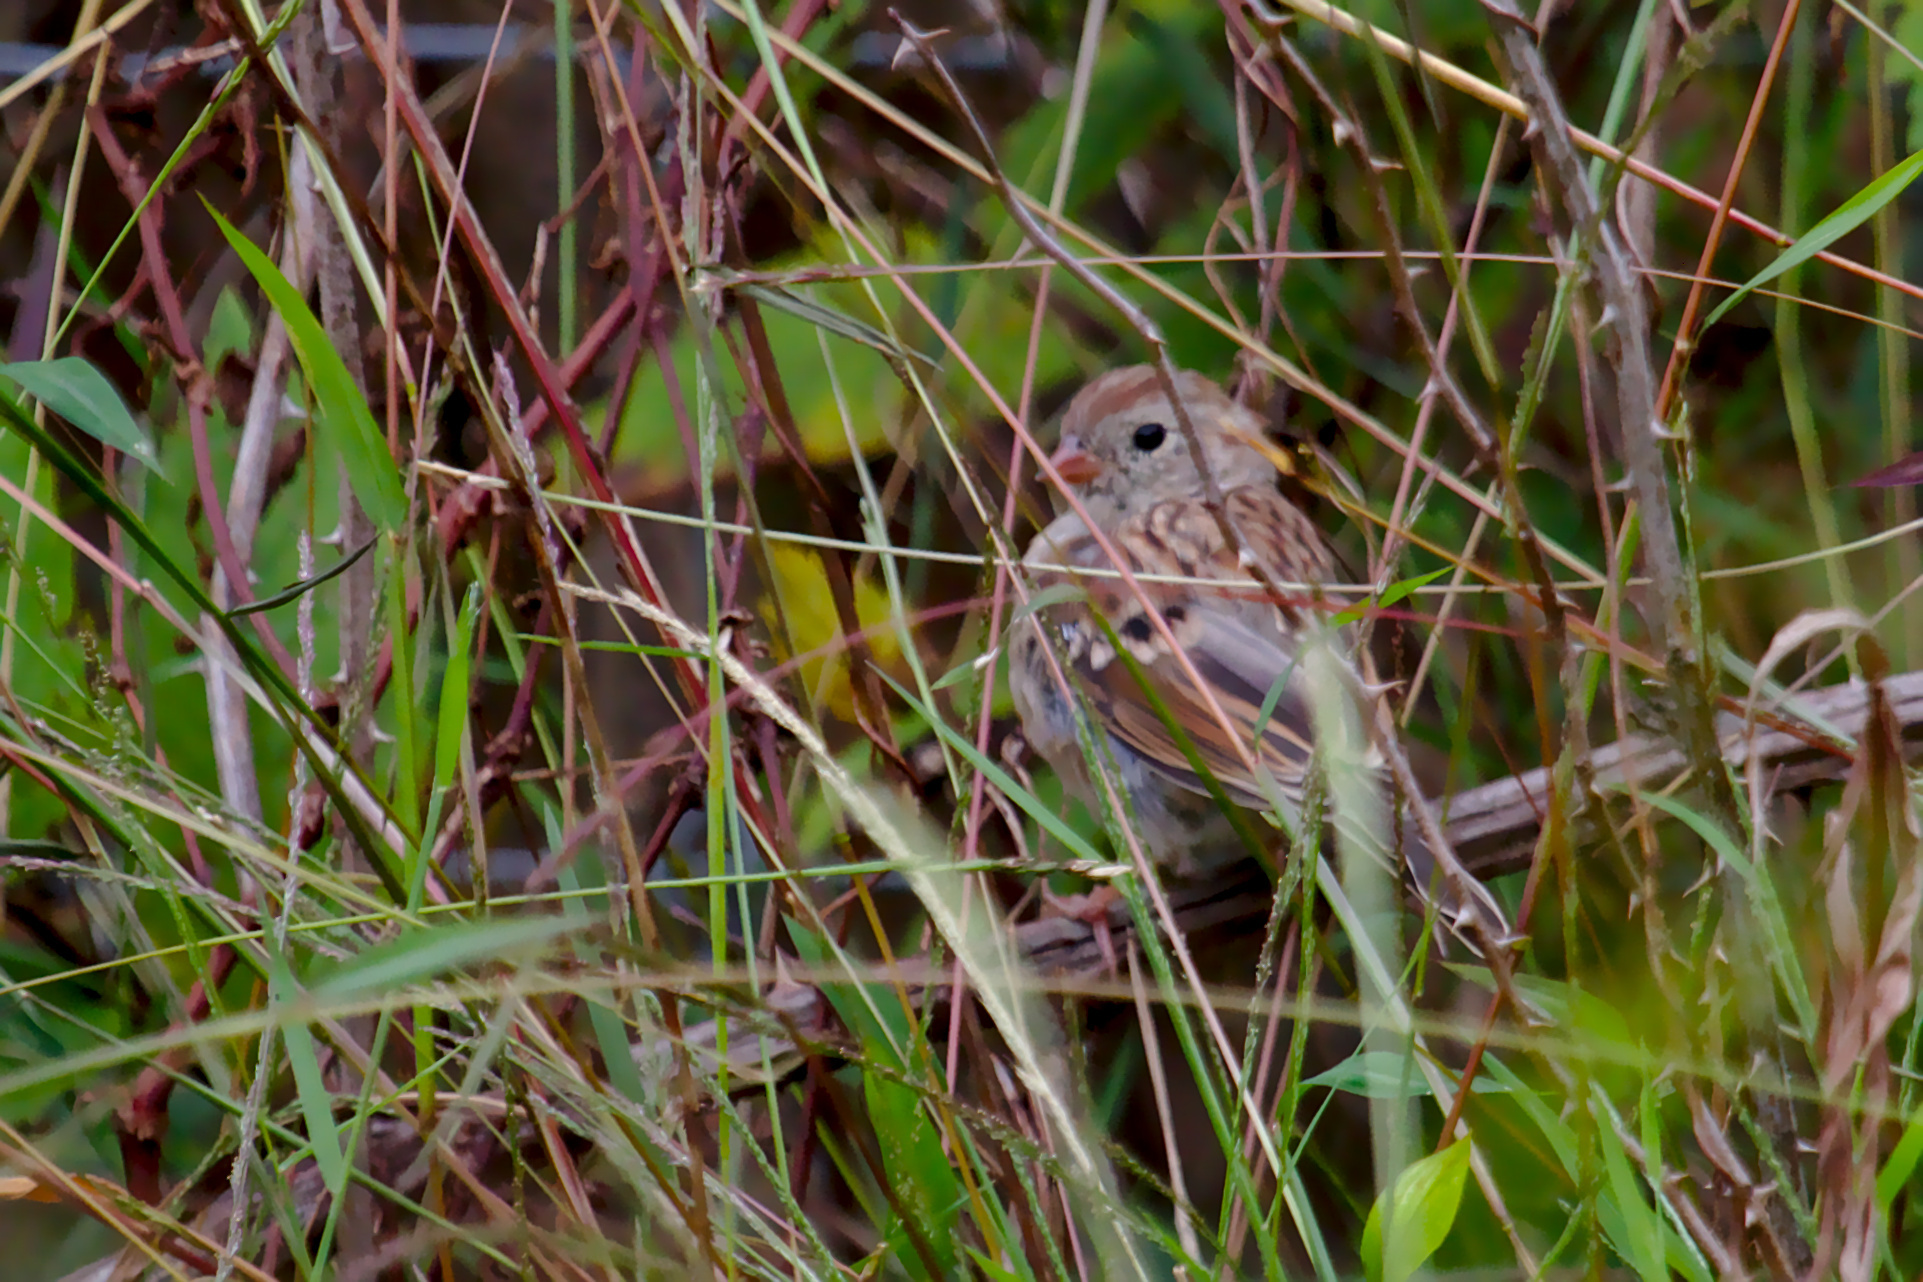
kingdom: Animalia
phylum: Chordata
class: Aves
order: Passeriformes
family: Passerellidae
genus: Spizella
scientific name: Spizella pusilla
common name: Field sparrow
